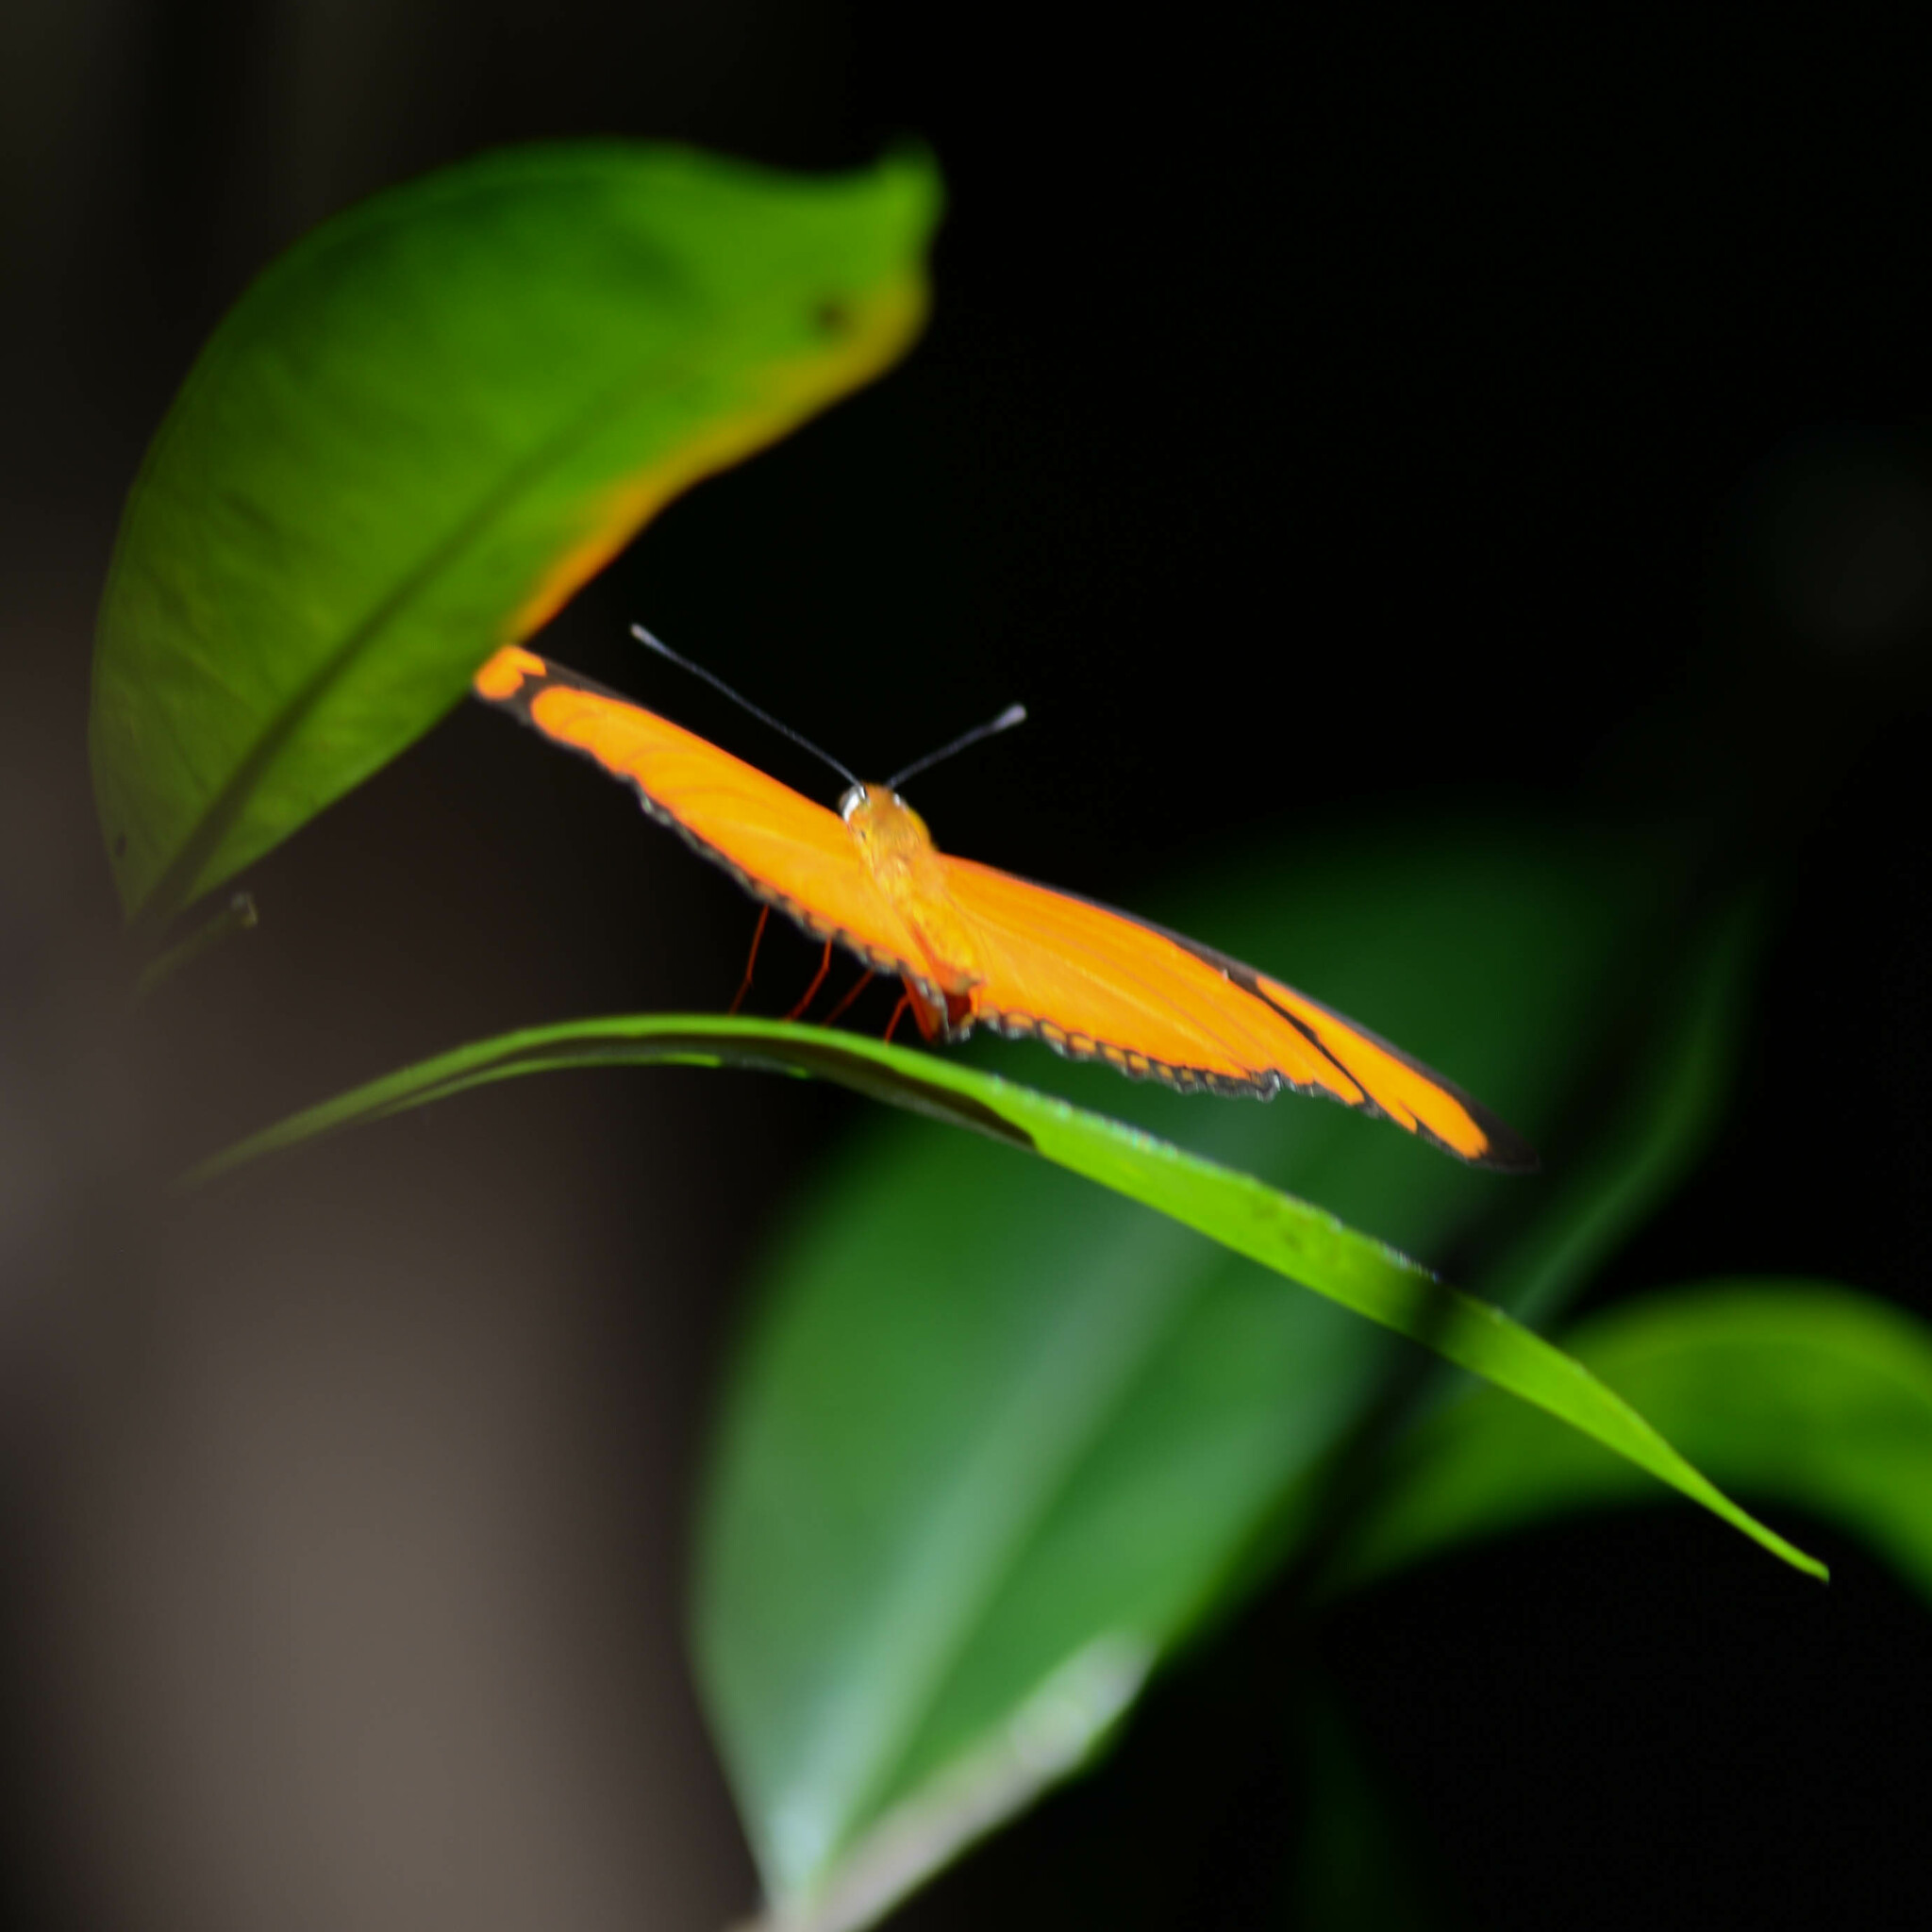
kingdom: Animalia
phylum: Arthropoda
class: Insecta
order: Lepidoptera
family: Nymphalidae
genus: Dryas
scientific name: Dryas iulia
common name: Flambeau
